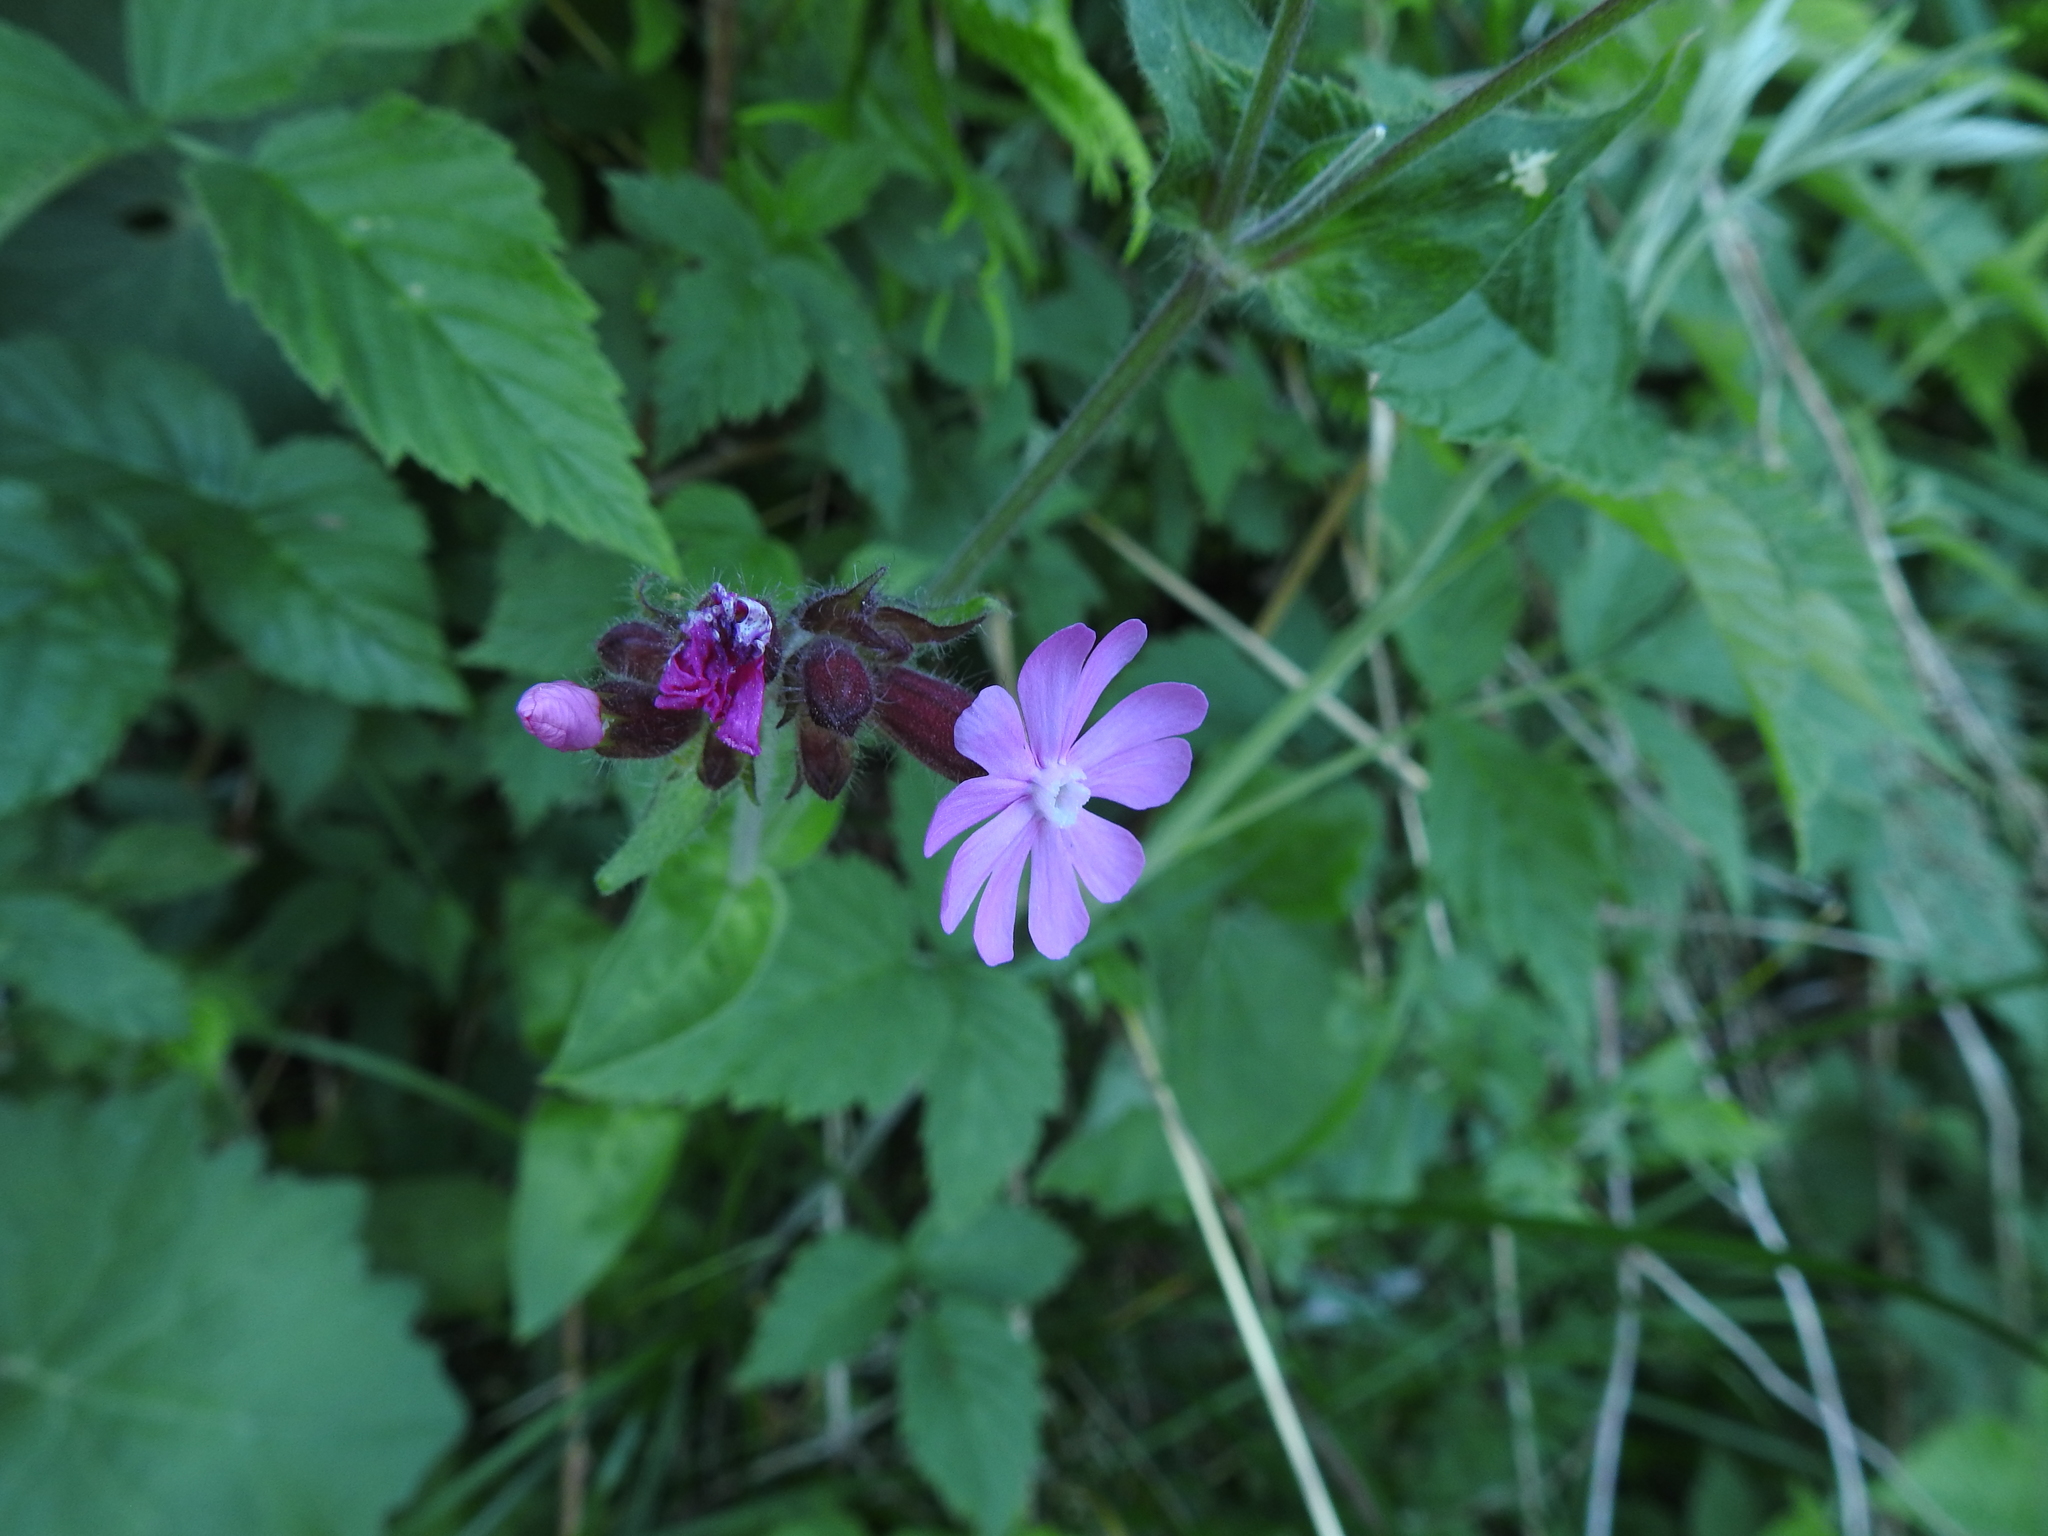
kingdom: Plantae
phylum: Tracheophyta
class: Magnoliopsida
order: Caryophyllales
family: Caryophyllaceae
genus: Silene
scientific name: Silene dioica
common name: Red campion
